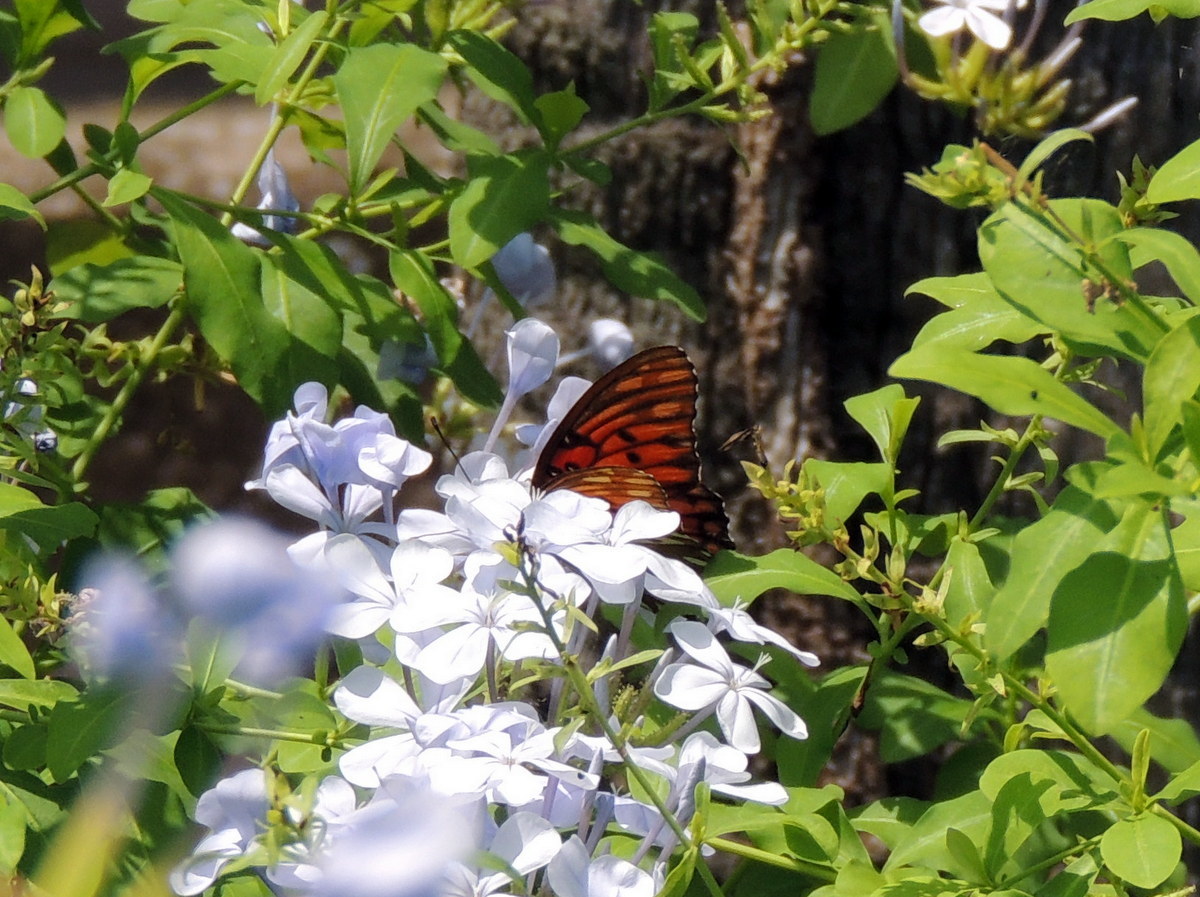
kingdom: Animalia
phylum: Arthropoda
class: Insecta
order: Lepidoptera
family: Nymphalidae
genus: Dione
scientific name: Dione vanillae
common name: Gulf fritillary
